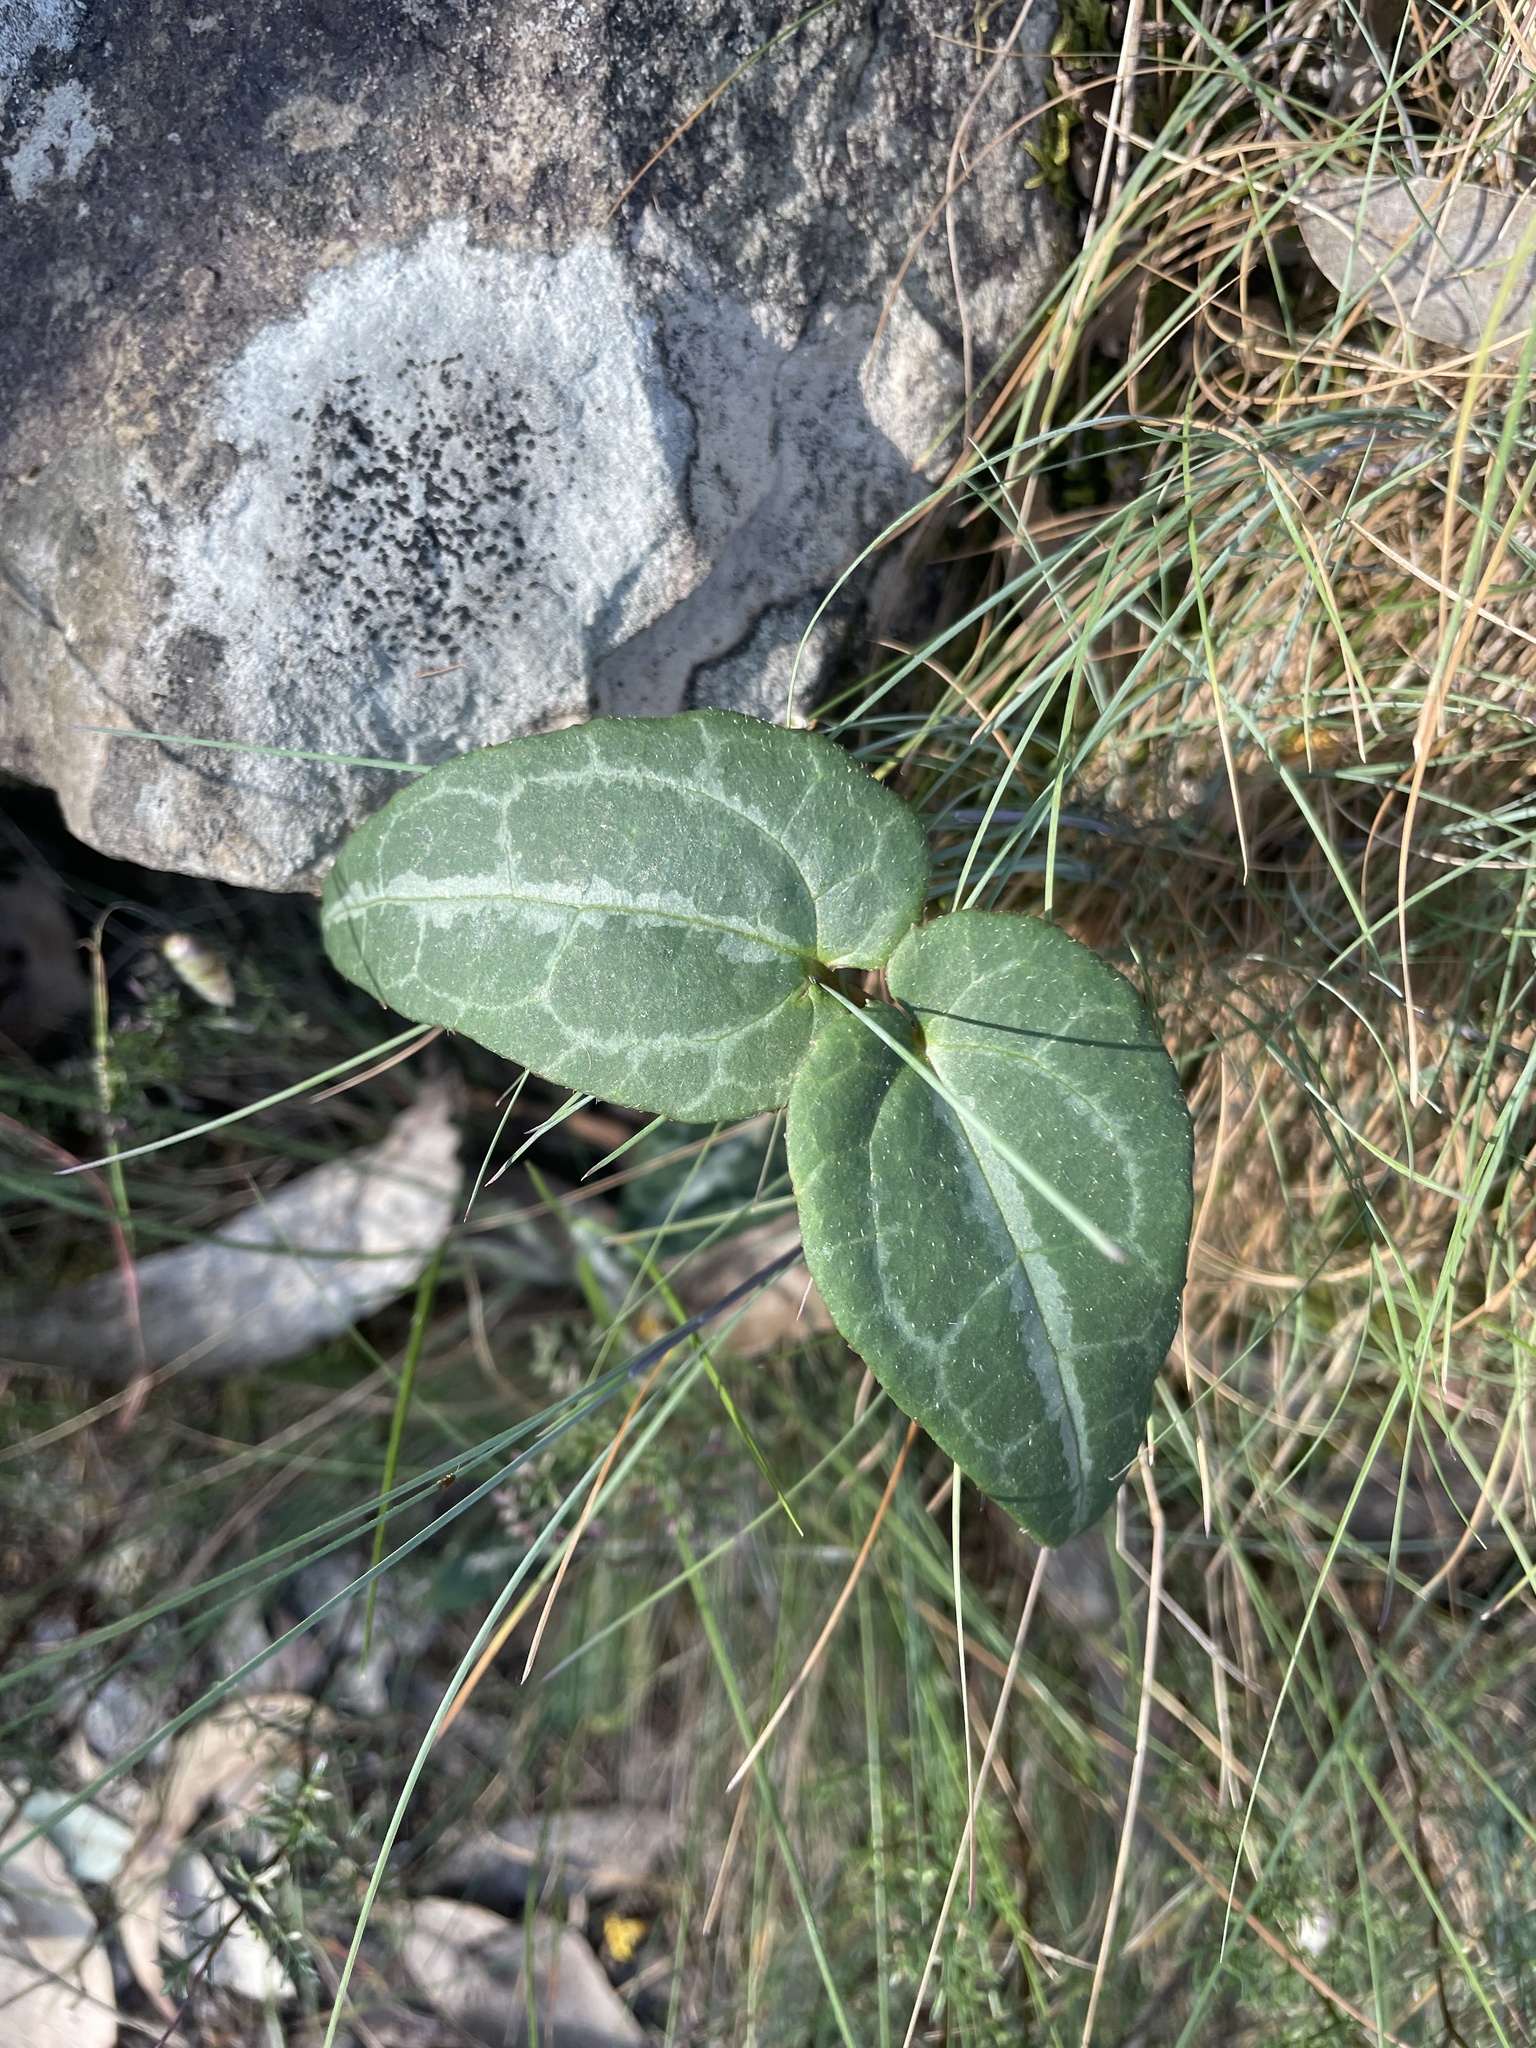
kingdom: Plantae
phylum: Tracheophyta
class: Magnoliopsida
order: Ranunculales
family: Ranunculaceae
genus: Clematis
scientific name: Clematis aristata
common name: Mountain clematis
